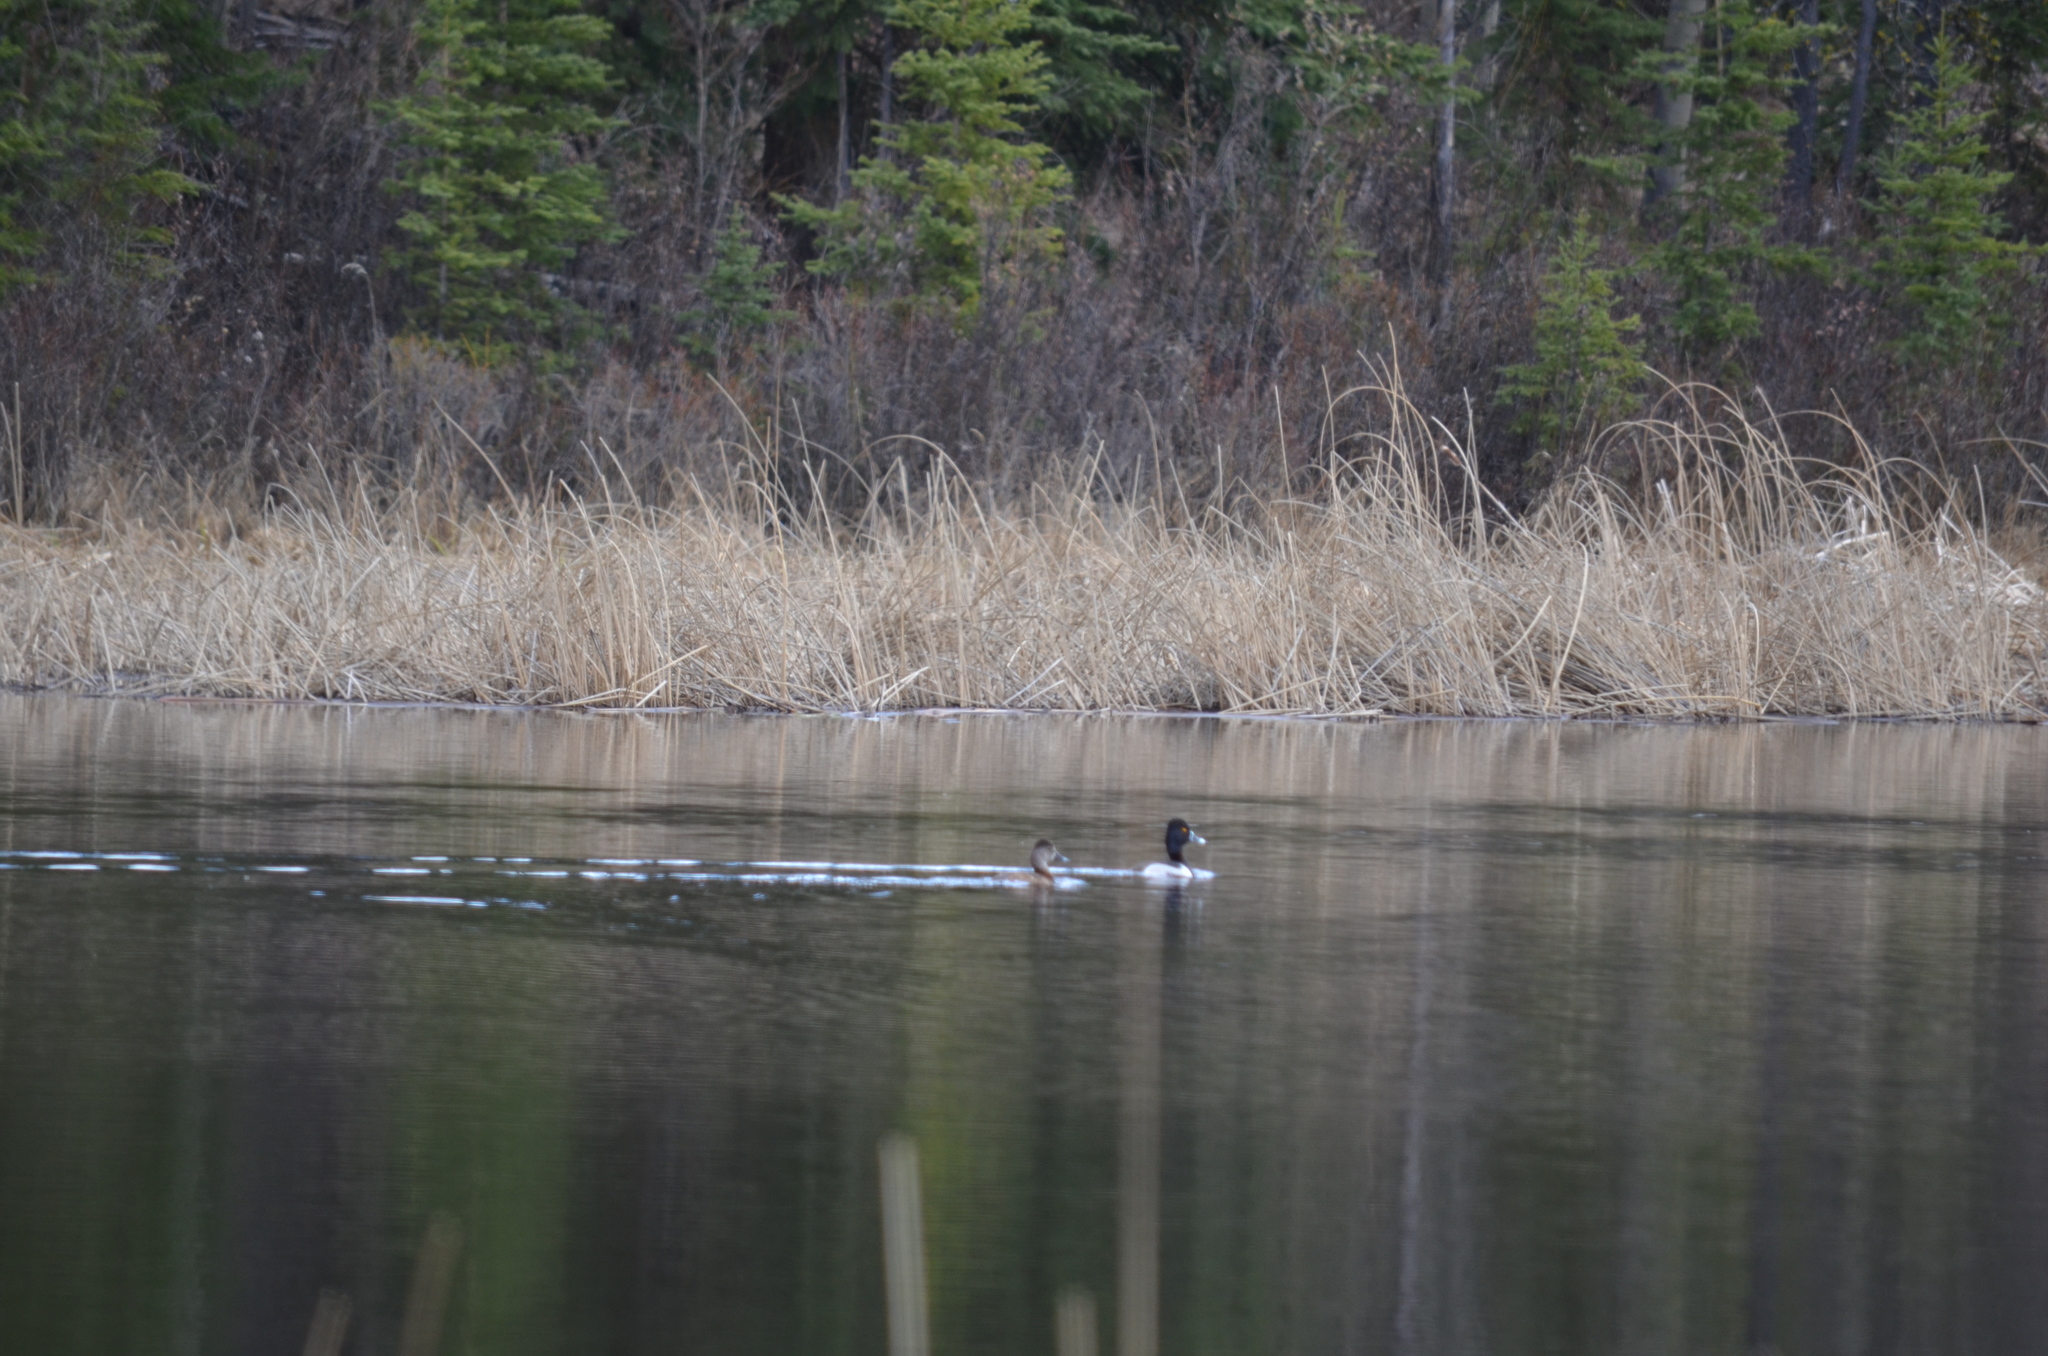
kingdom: Animalia
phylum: Chordata
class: Aves
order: Anseriformes
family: Anatidae
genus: Aythya
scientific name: Aythya collaris
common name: Ring-necked duck
